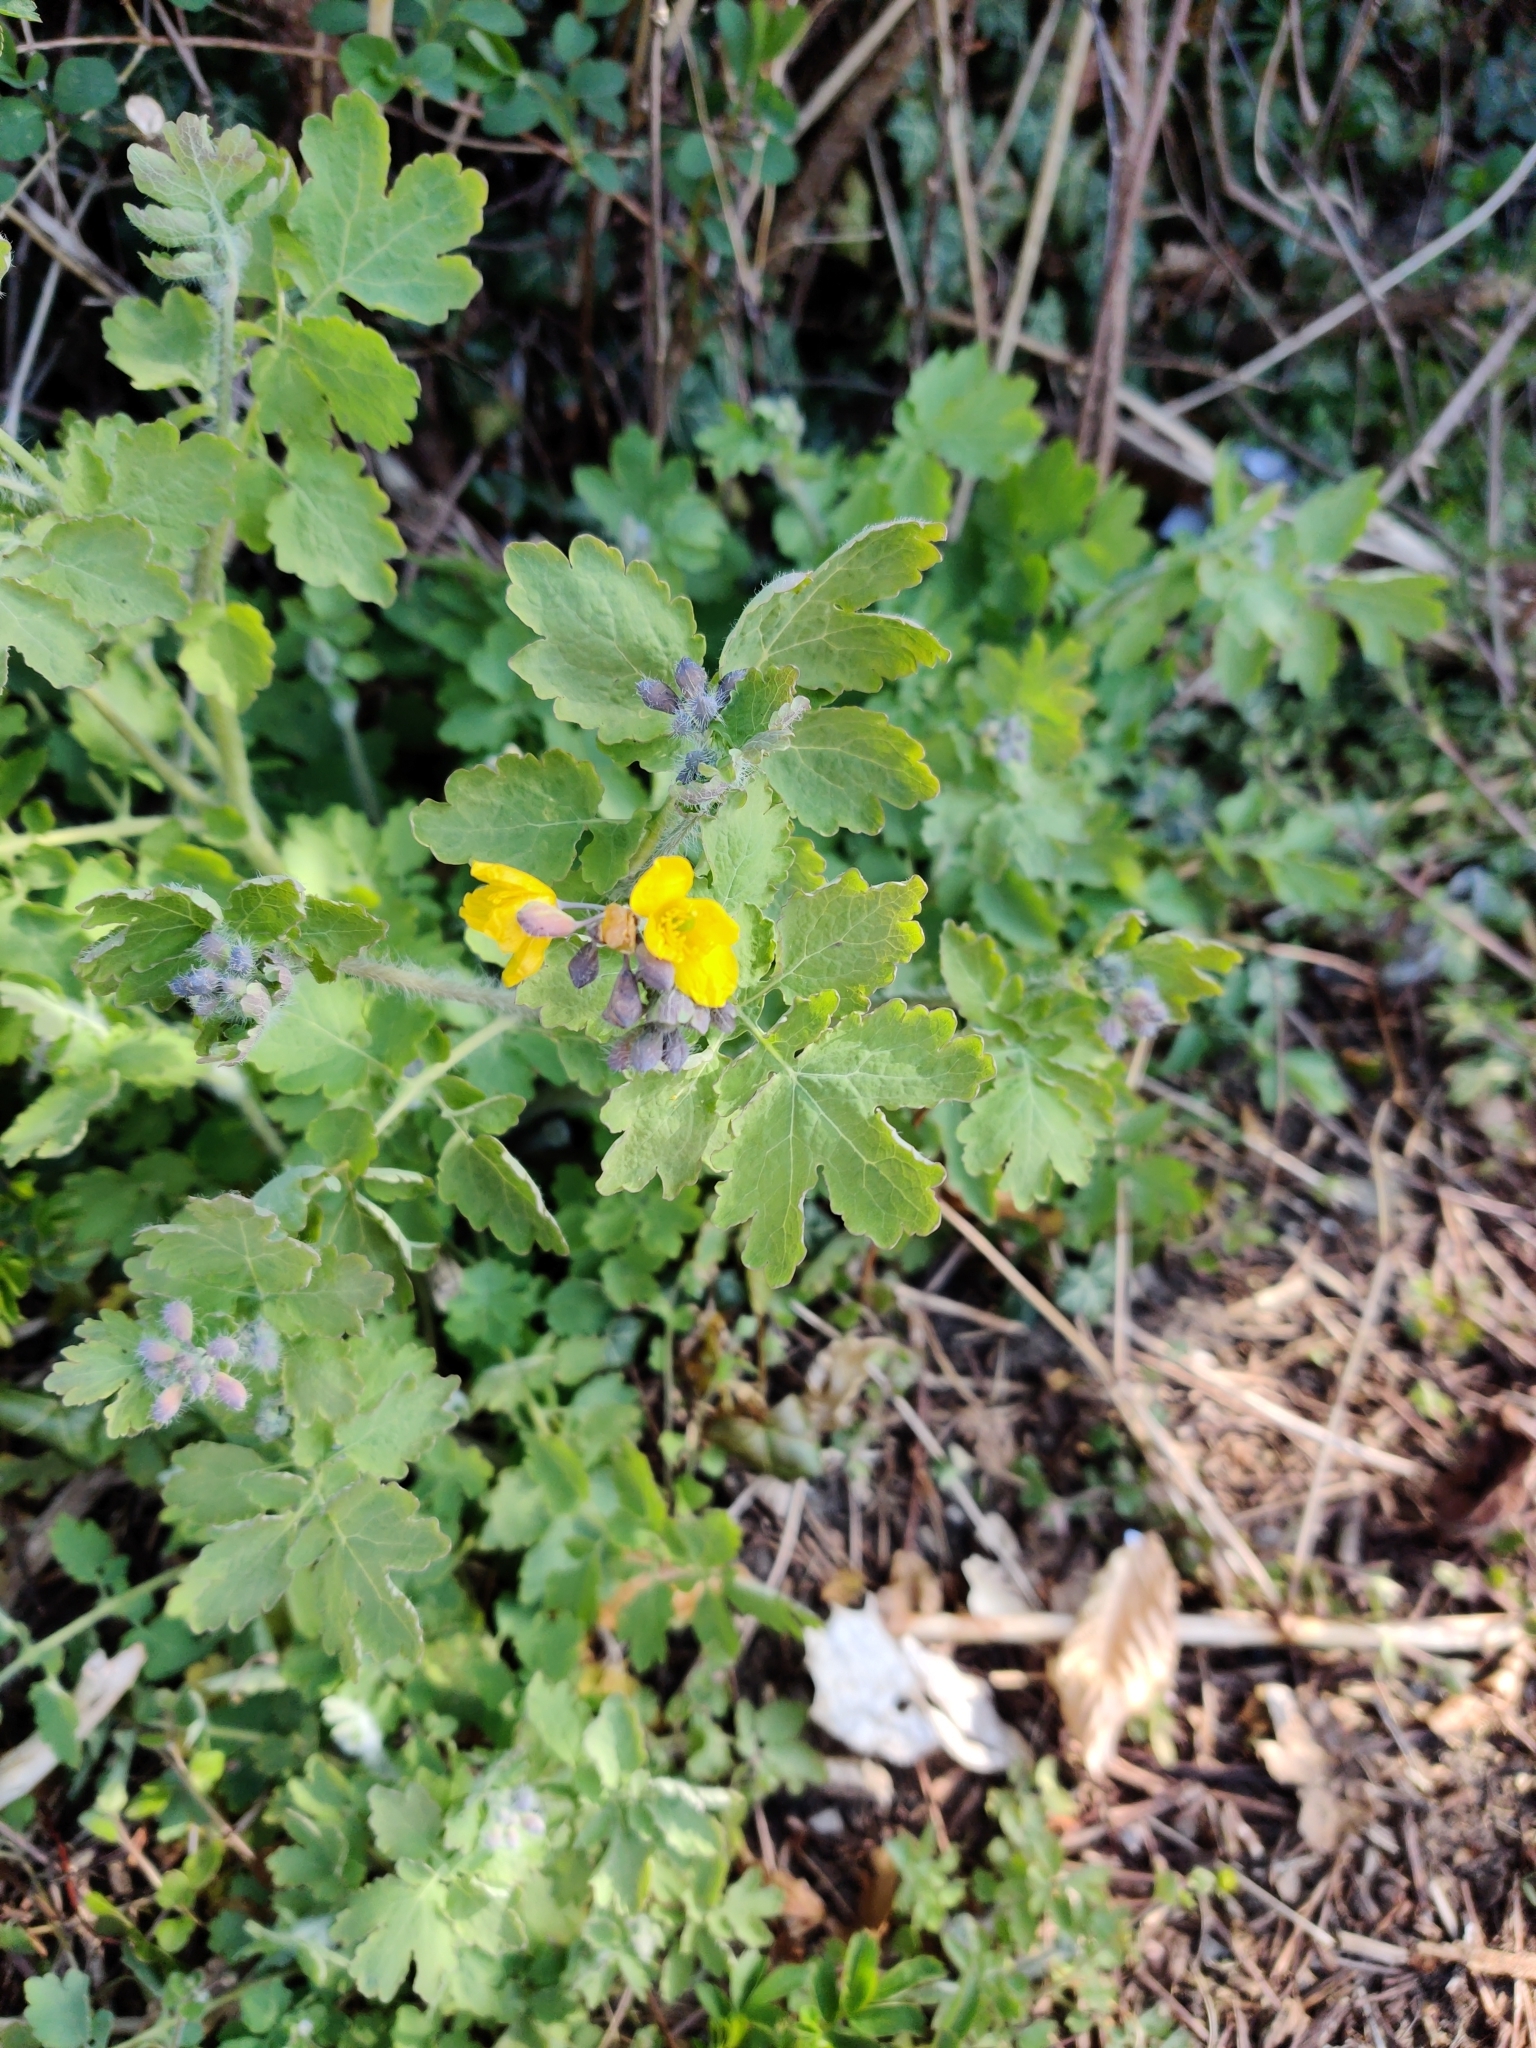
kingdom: Plantae
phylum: Tracheophyta
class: Magnoliopsida
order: Ranunculales
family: Papaveraceae
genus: Chelidonium
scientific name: Chelidonium majus
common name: Greater celandine
